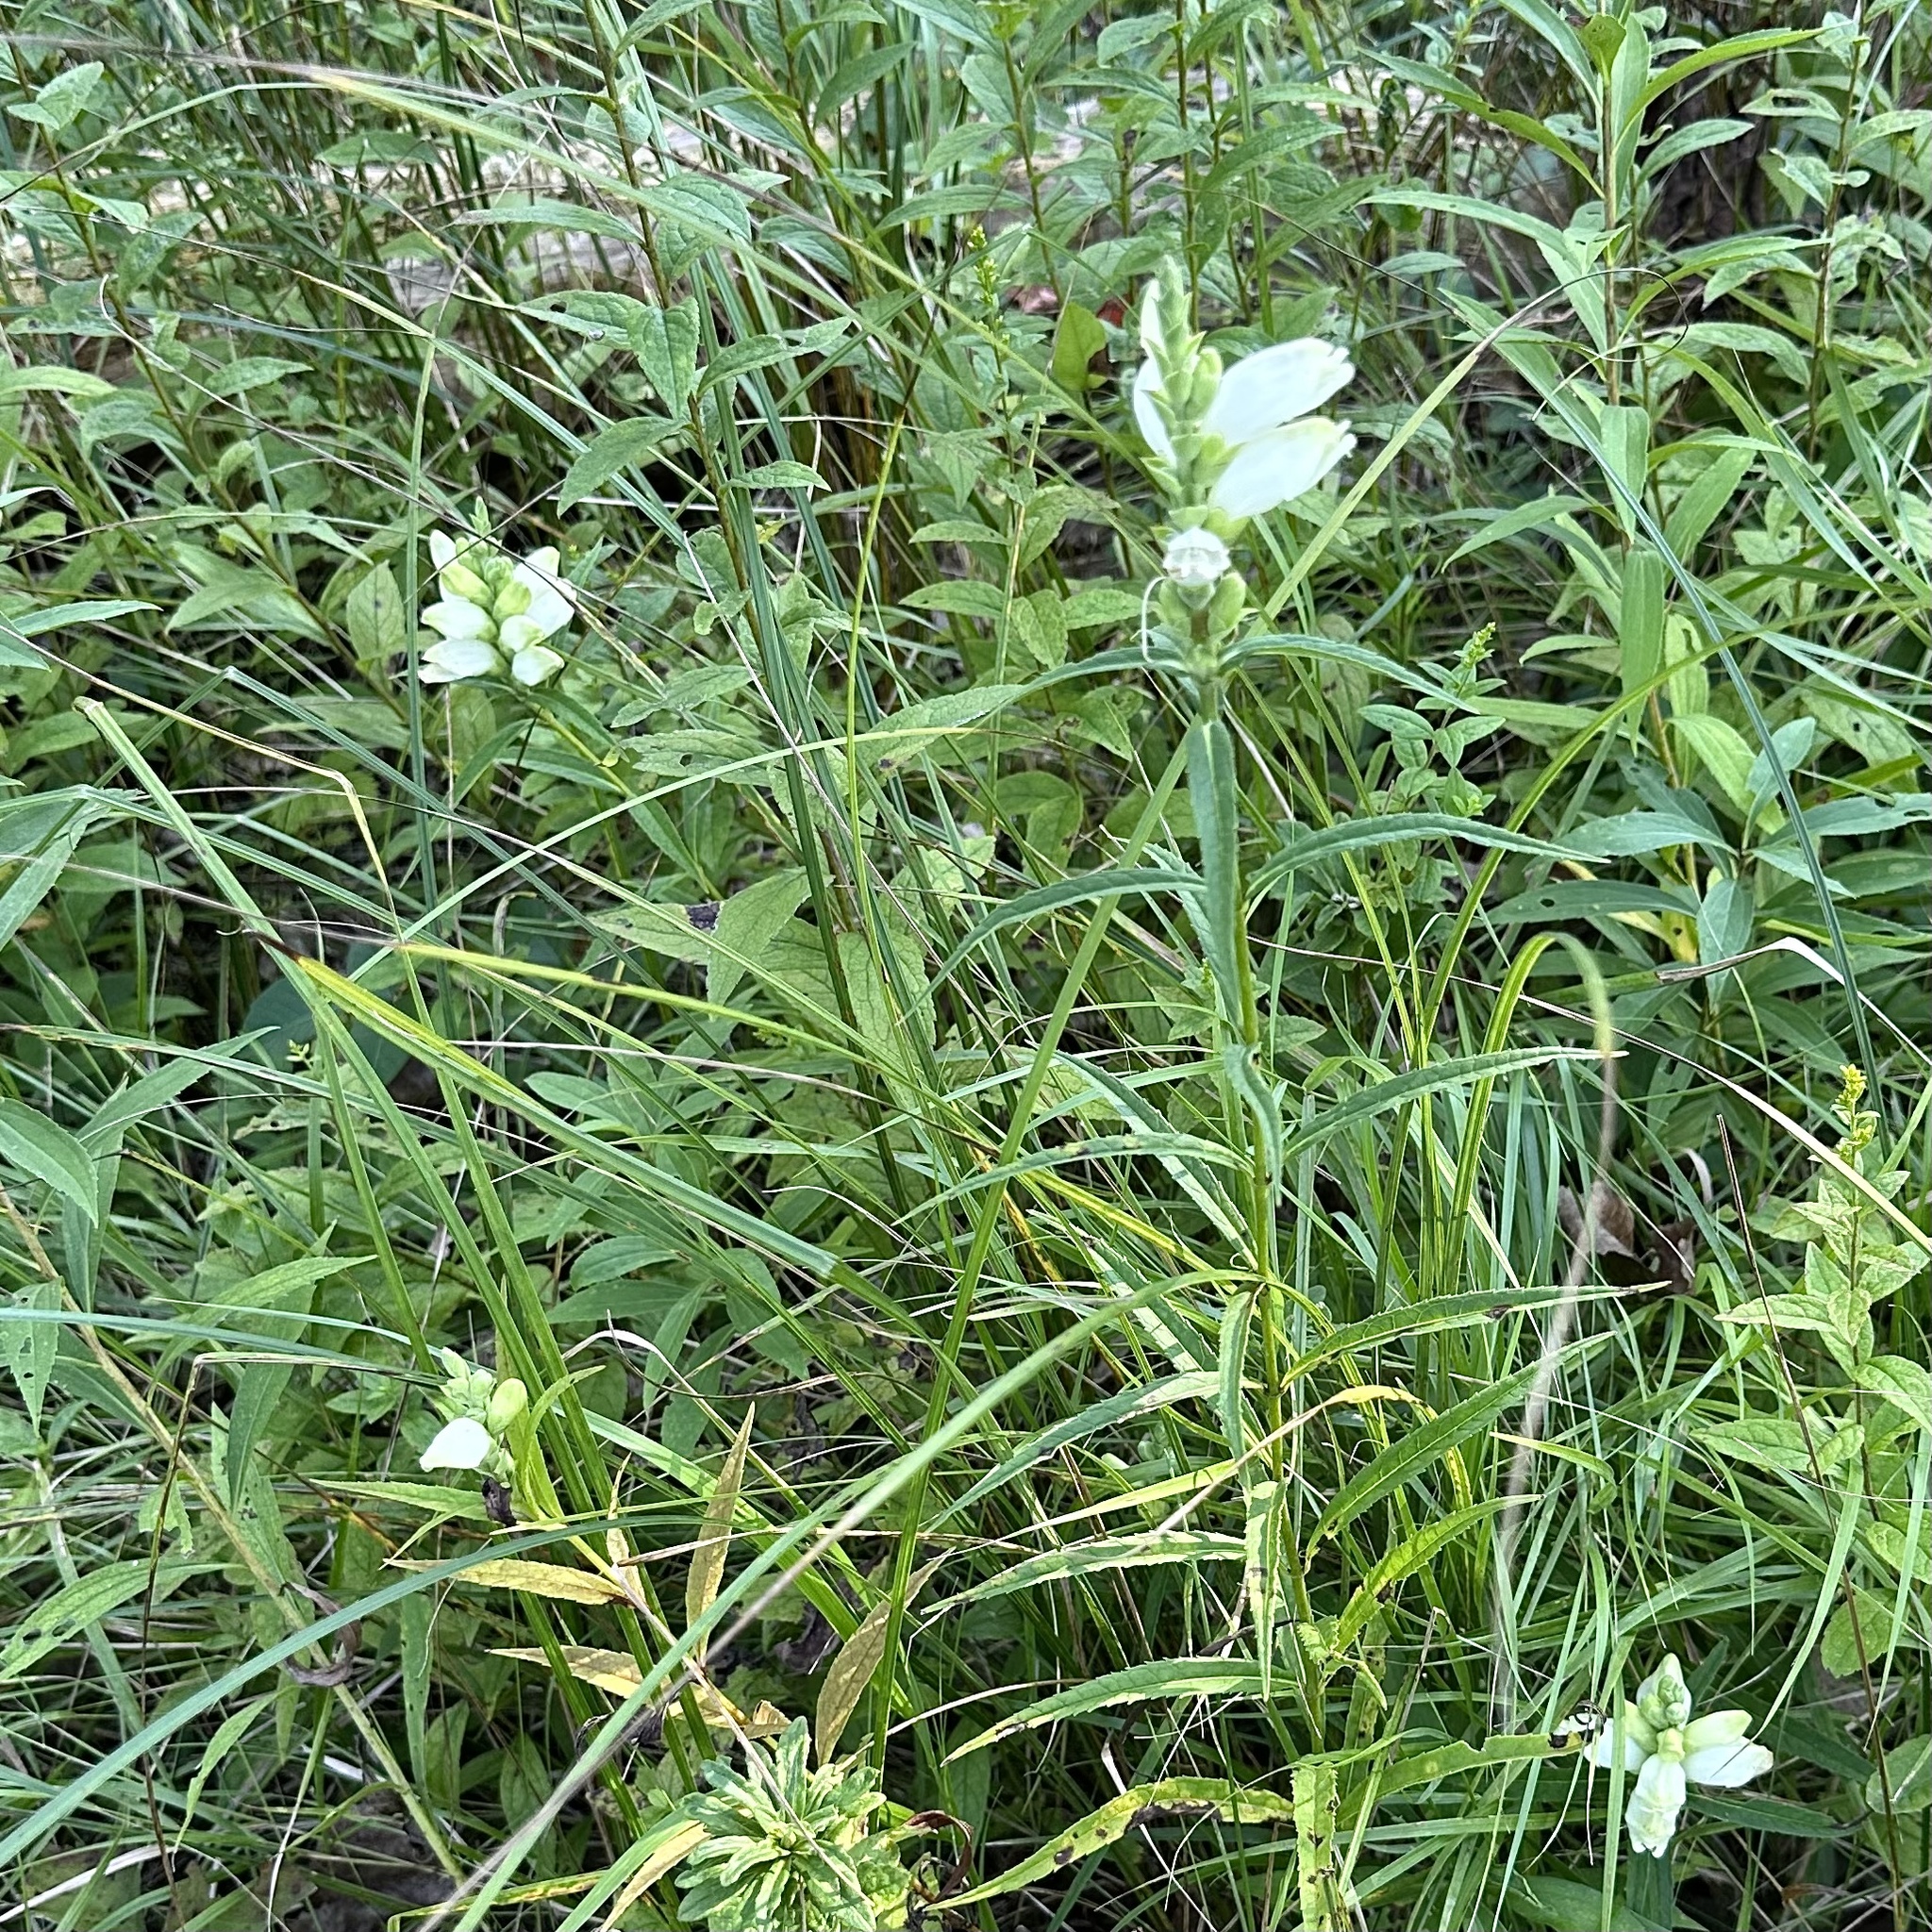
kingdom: Plantae
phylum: Tracheophyta
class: Magnoliopsida
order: Lamiales
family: Plantaginaceae
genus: Chelone
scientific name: Chelone glabra
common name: Snakehead
